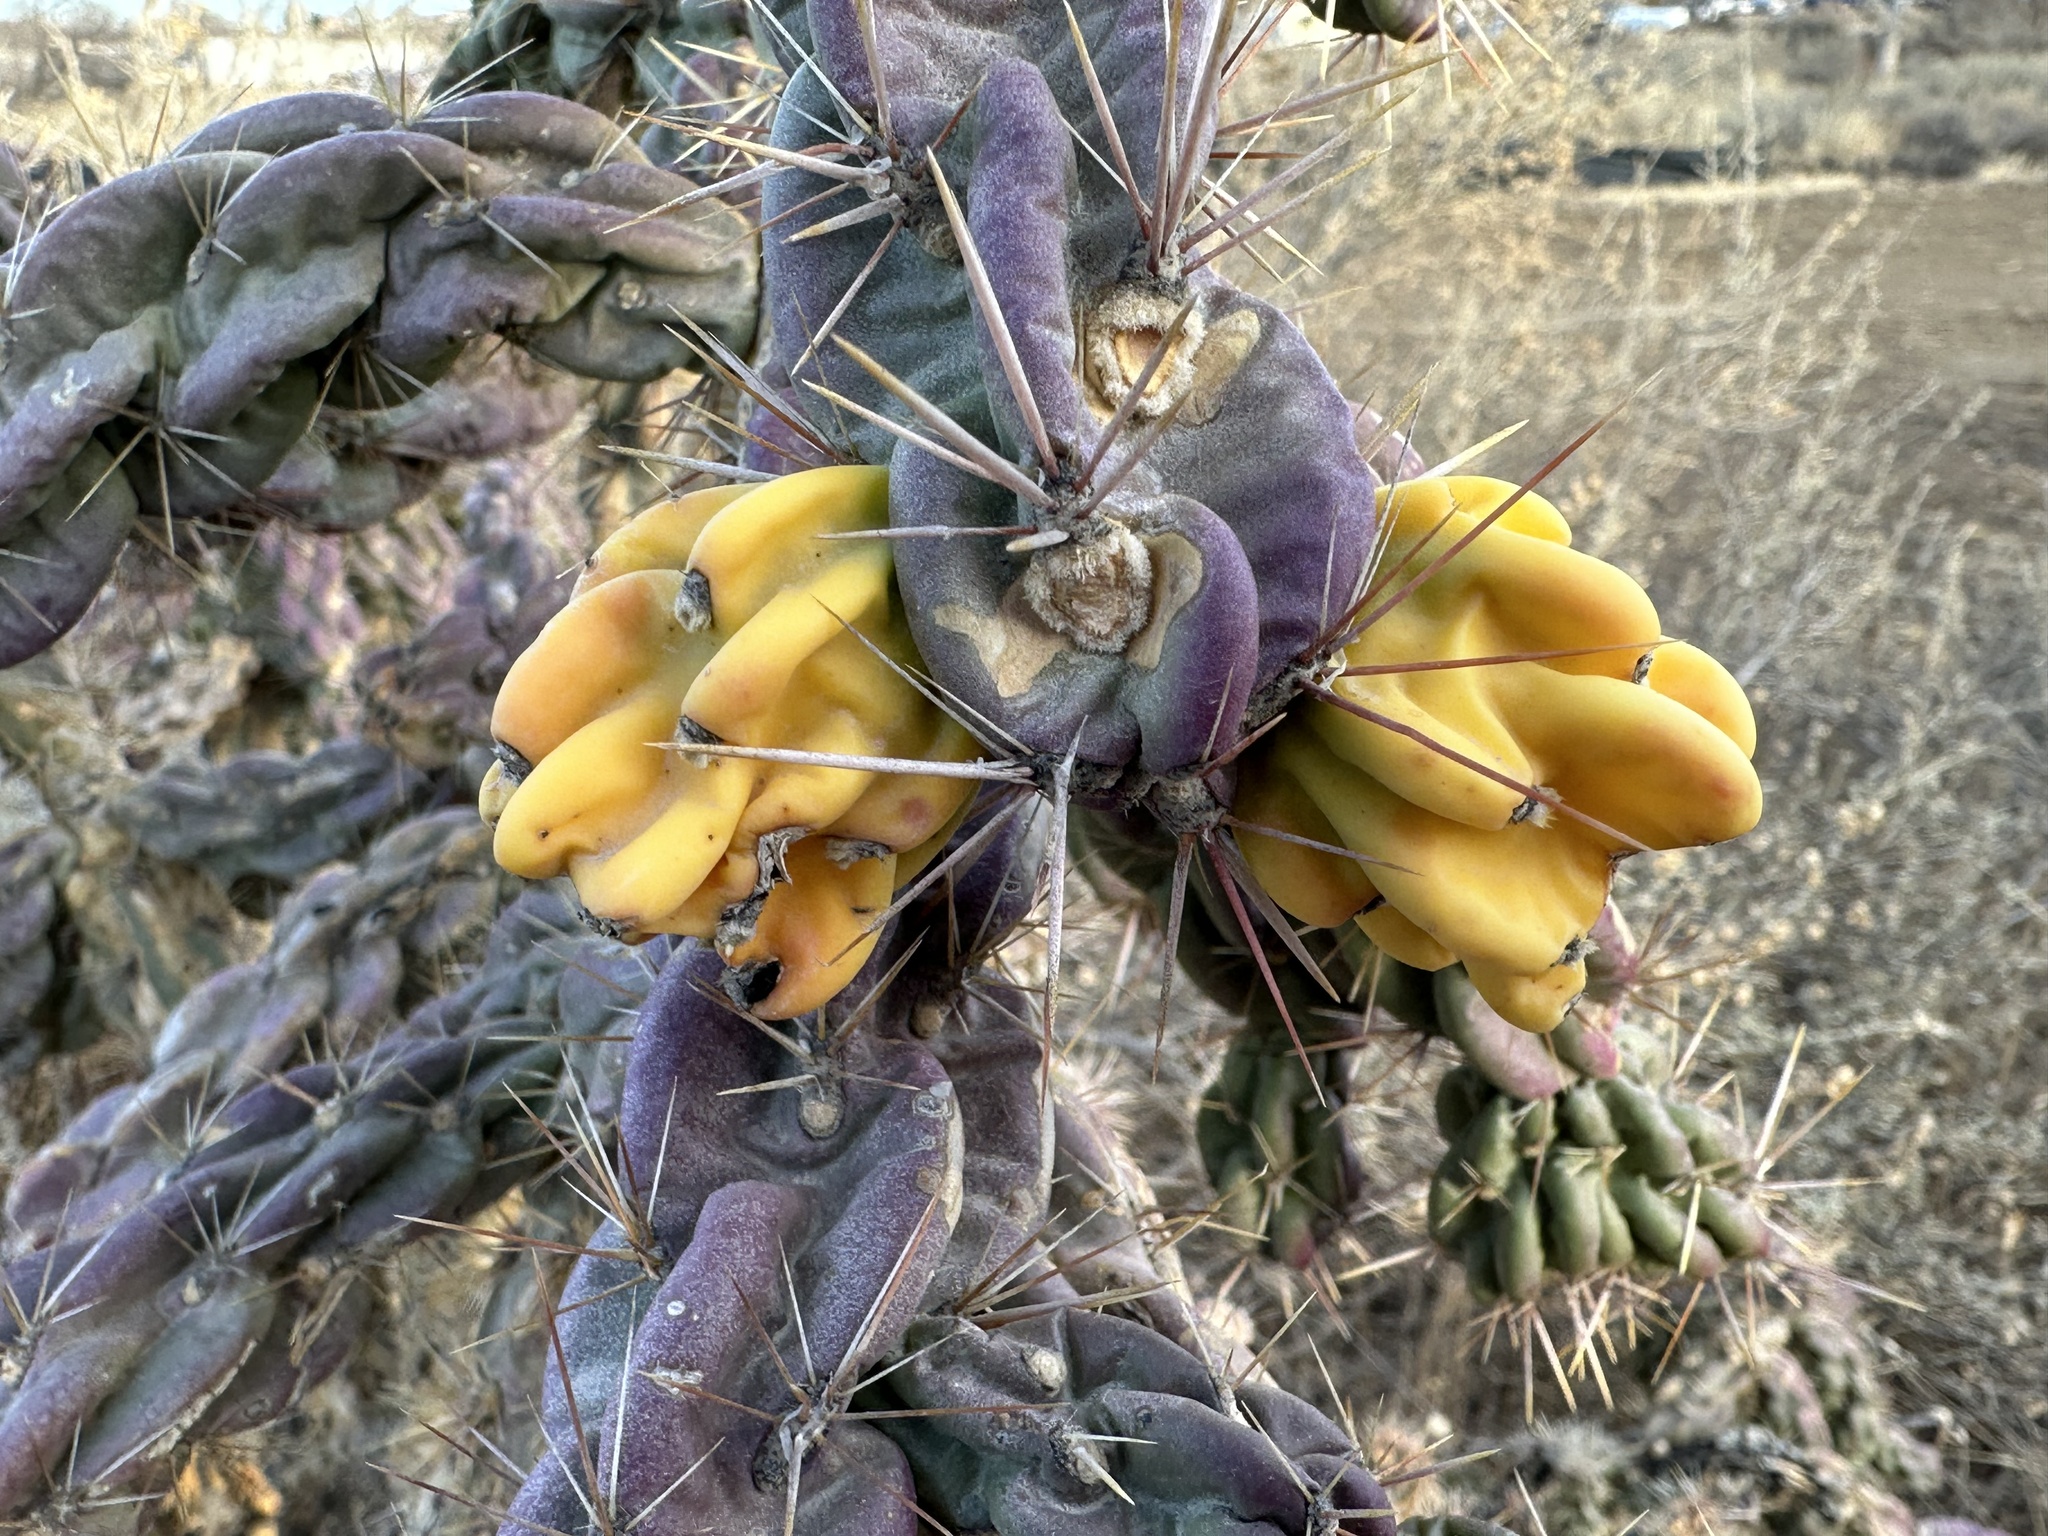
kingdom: Plantae
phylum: Tracheophyta
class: Magnoliopsida
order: Caryophyllales
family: Cactaceae
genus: Cylindropuntia
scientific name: Cylindropuntia imbricata
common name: Candelabrum cactus
